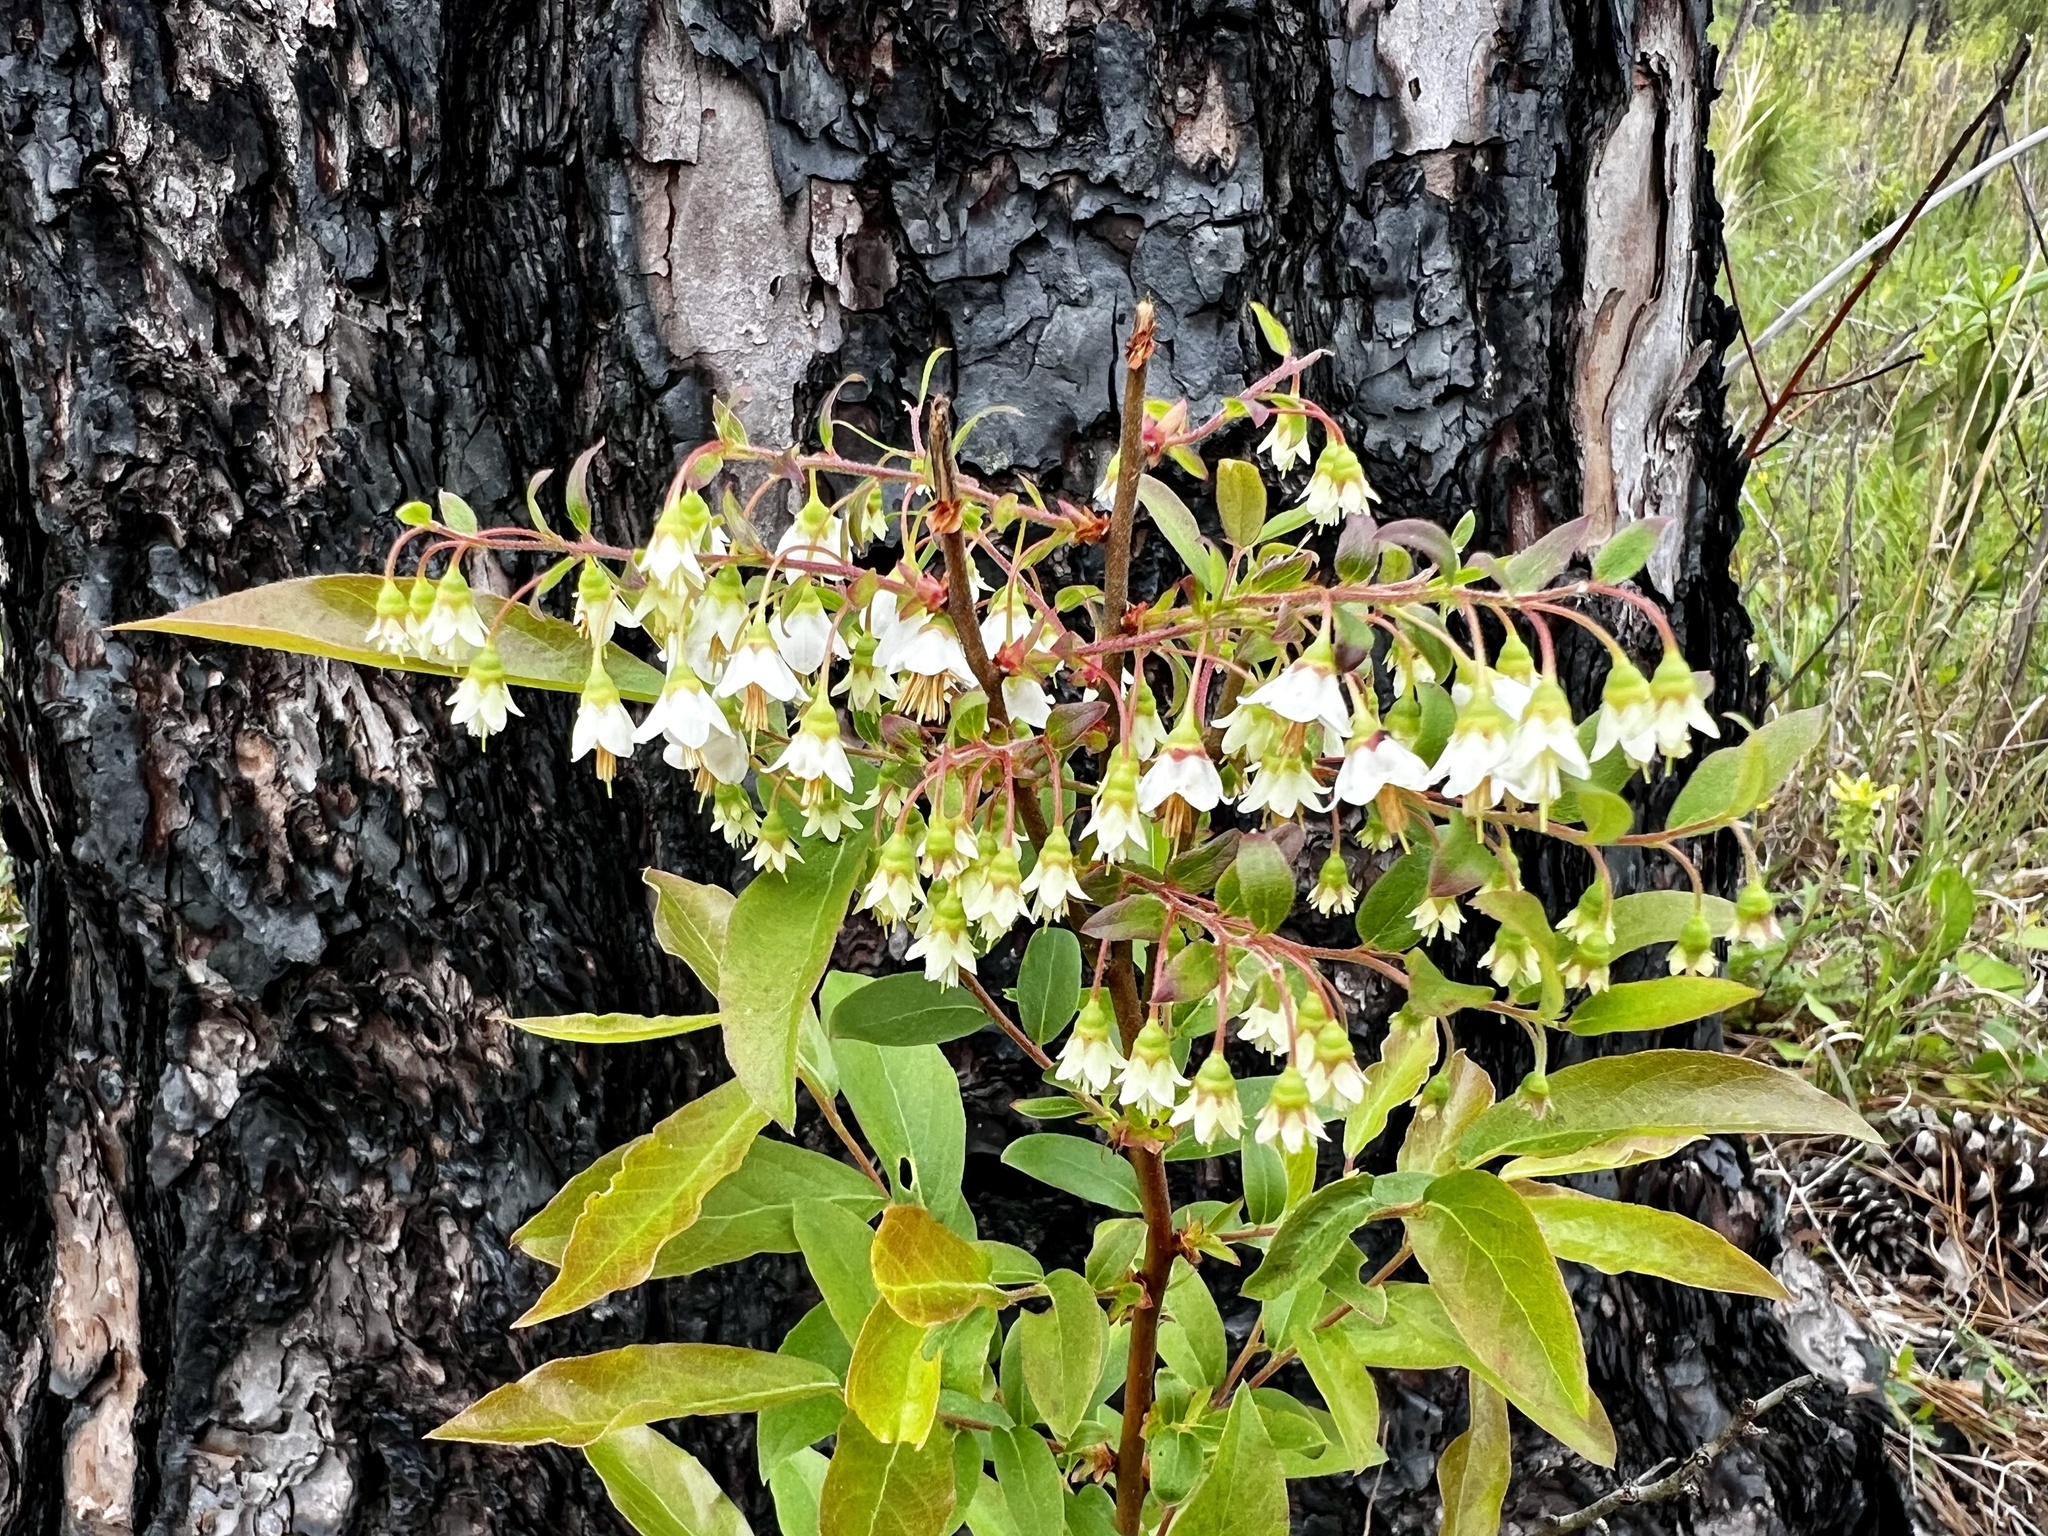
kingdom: Plantae
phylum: Tracheophyta
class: Magnoliopsida
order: Ericales
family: Ericaceae
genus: Vaccinium
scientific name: Vaccinium stamineum
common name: Deerberry
